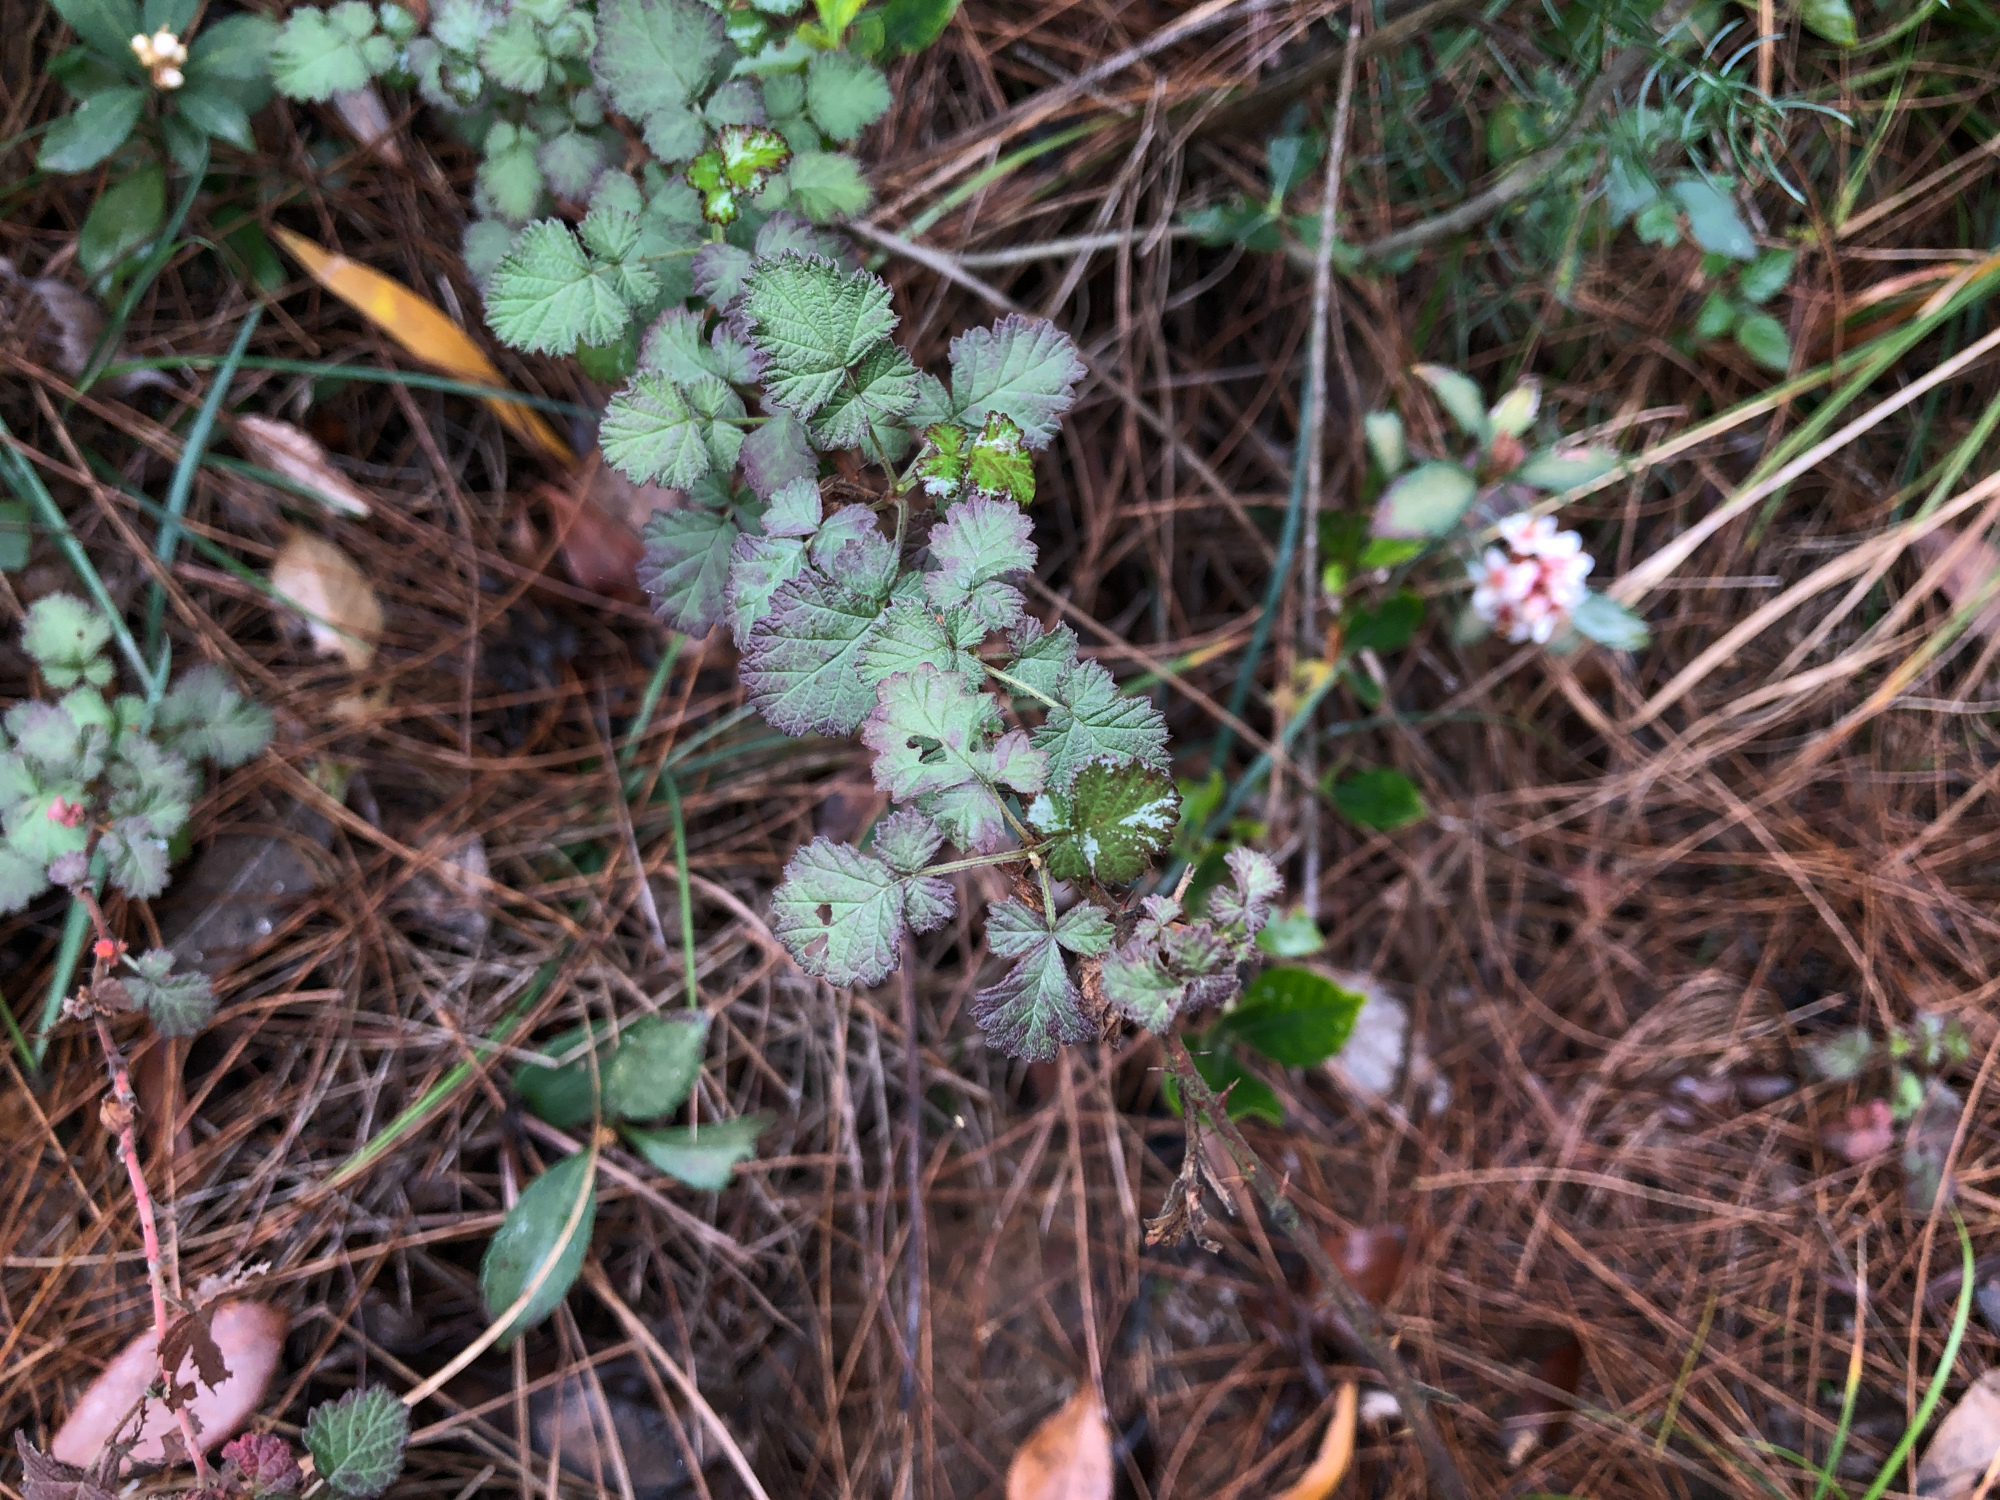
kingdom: Plantae
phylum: Tracheophyta
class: Magnoliopsida
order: Rosales
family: Rosaceae
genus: Rubus
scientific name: Rubus parvifolius
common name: Threeleaf blackberry
